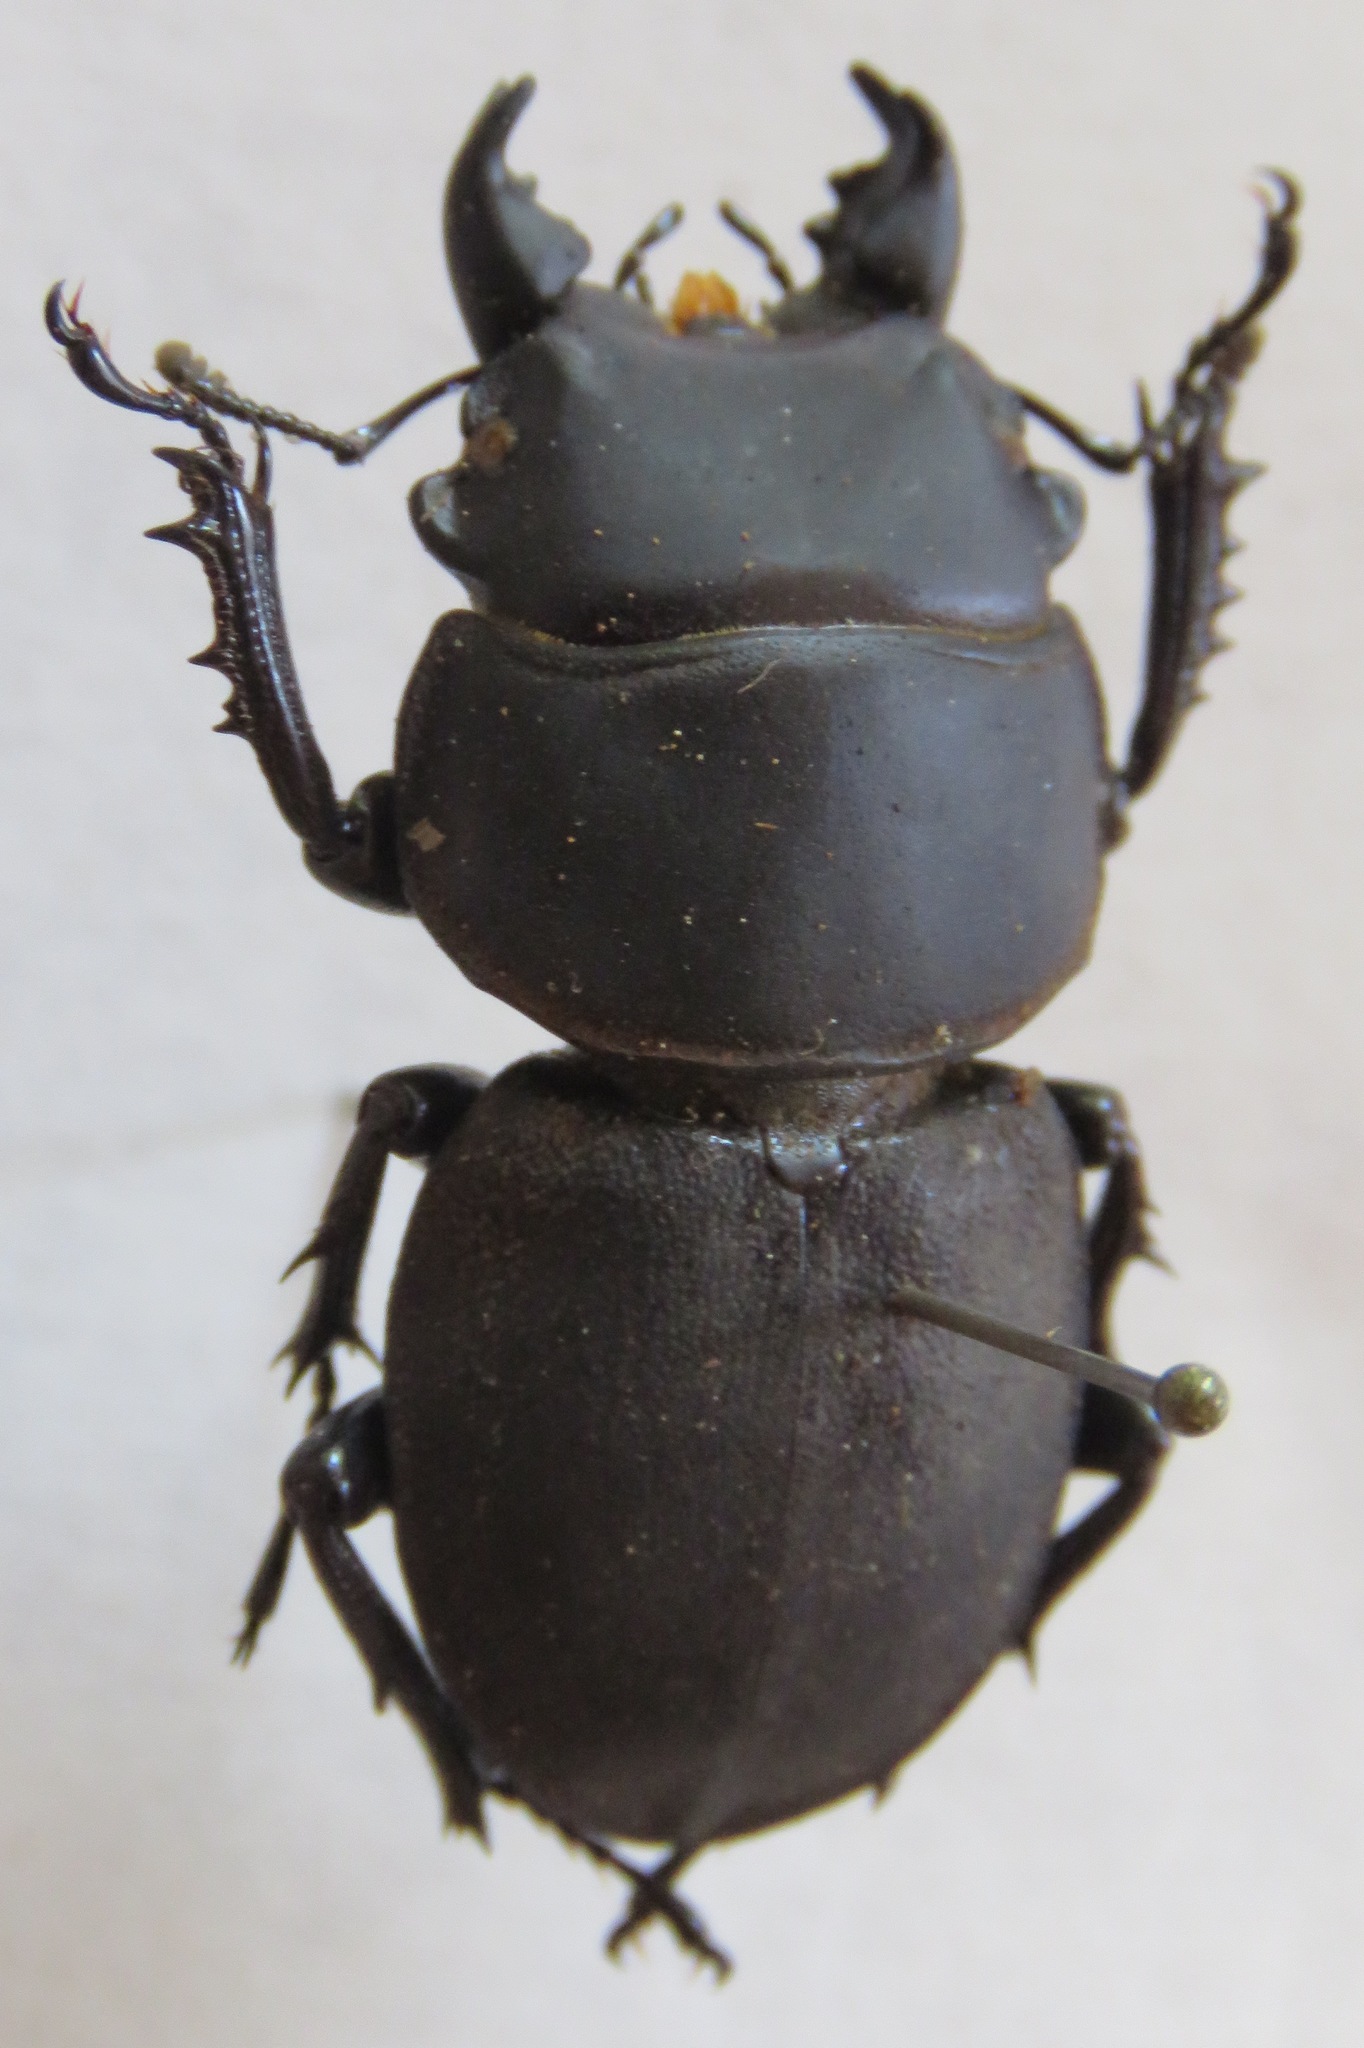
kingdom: Animalia
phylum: Arthropoda
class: Insecta
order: Coleoptera
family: Lucanidae
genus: Apterodorcus
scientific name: Apterodorcus bacchus
